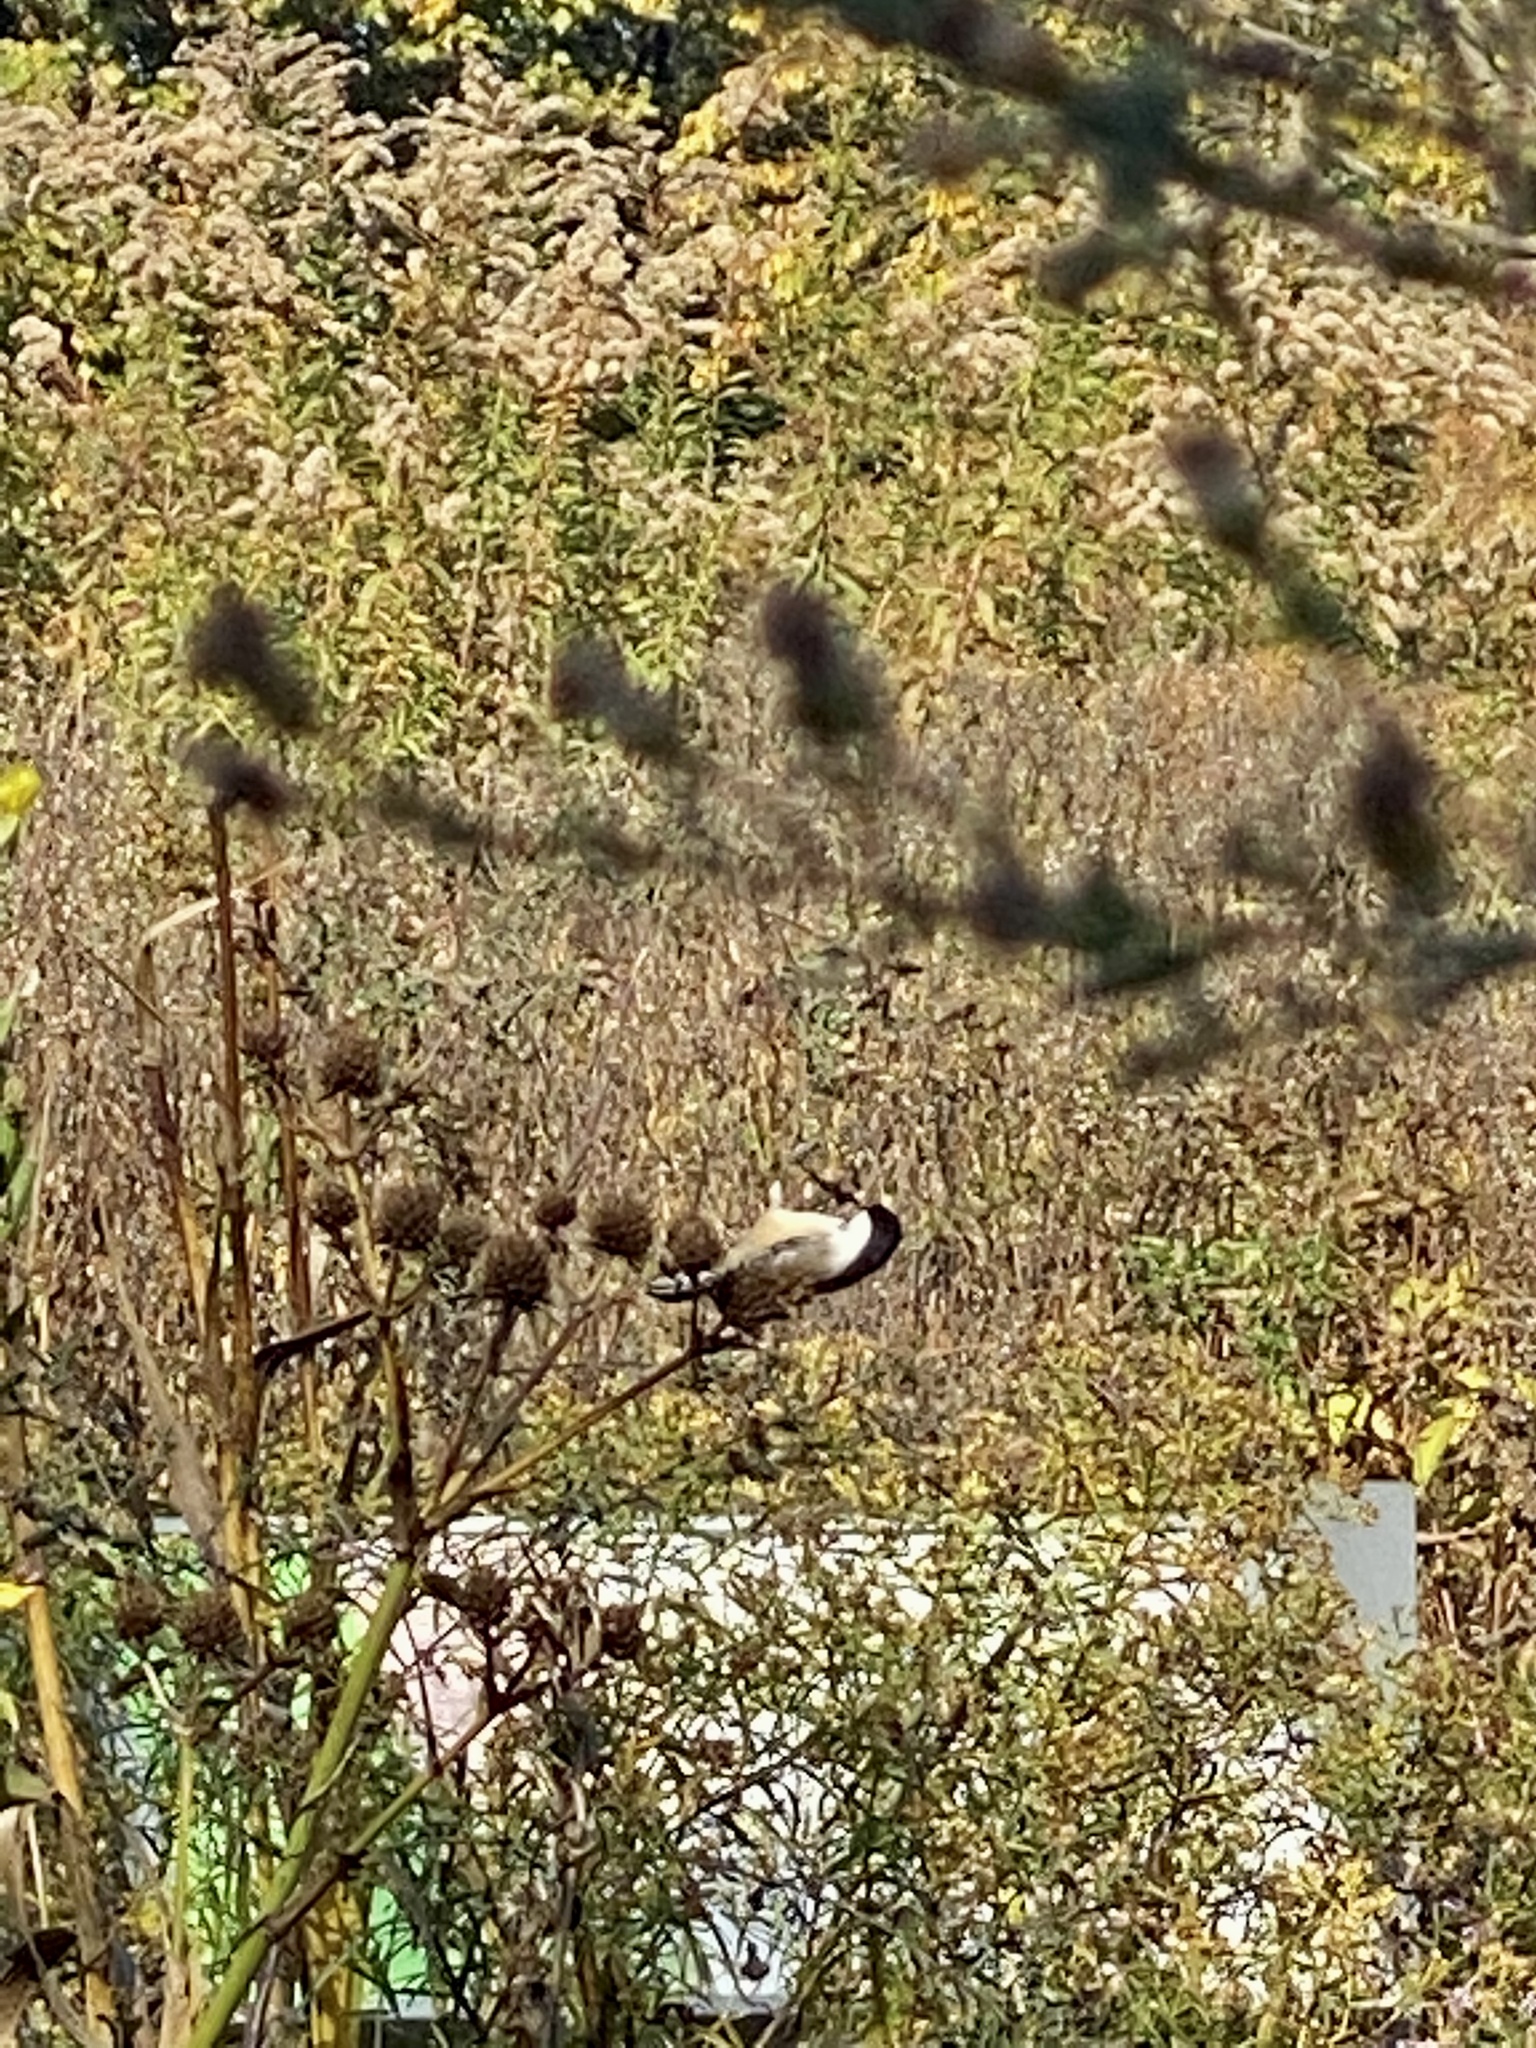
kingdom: Animalia
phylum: Chordata
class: Aves
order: Passeriformes
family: Paridae
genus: Poecile
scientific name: Poecile atricapillus
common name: Black-capped chickadee
